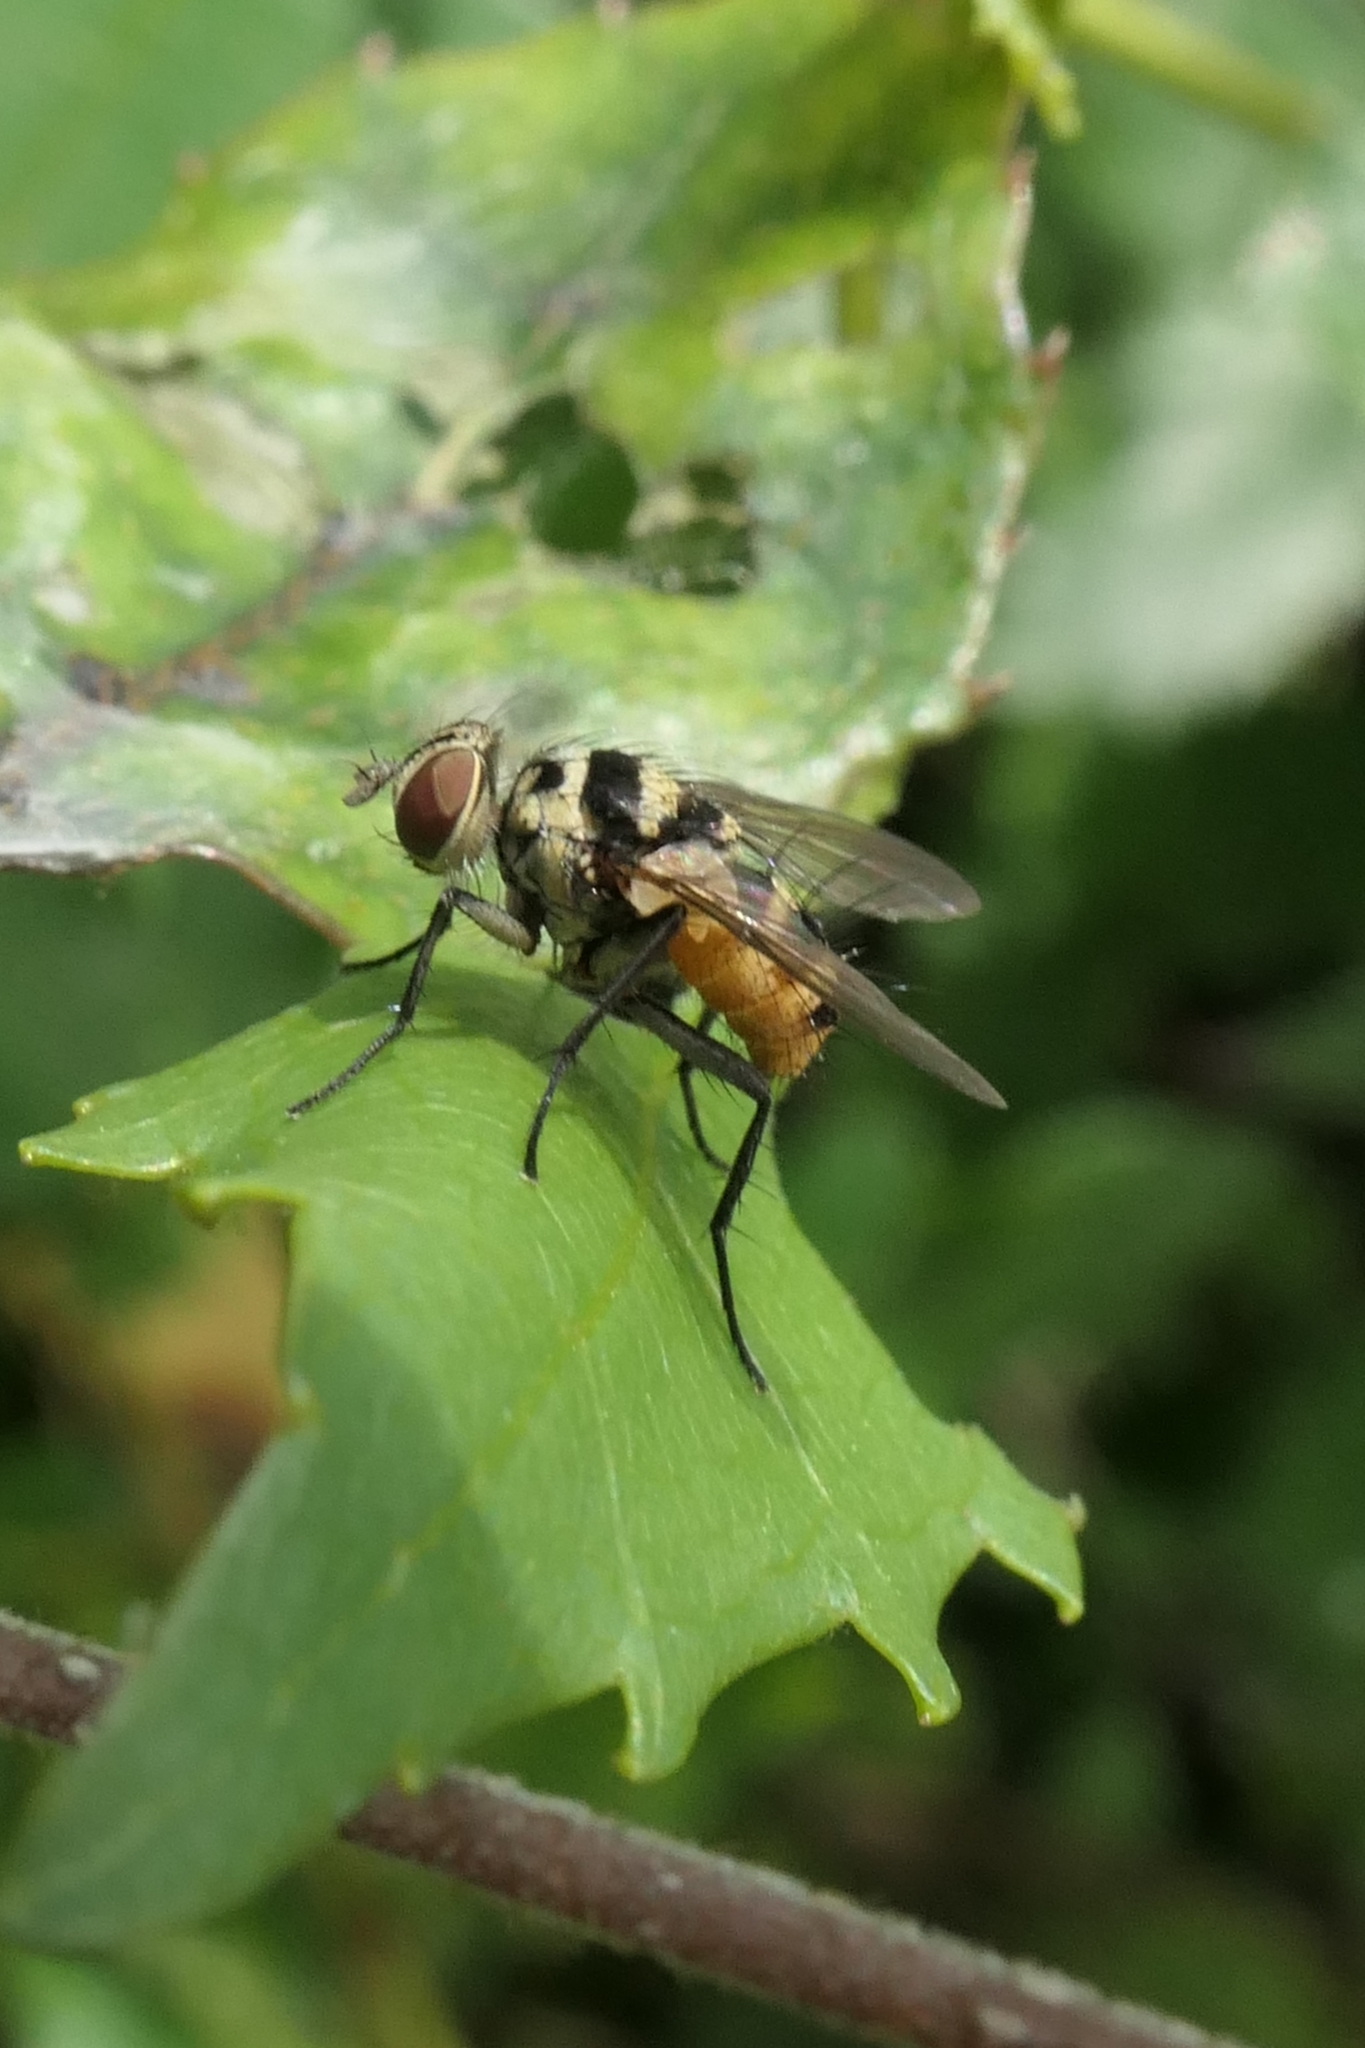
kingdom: Animalia
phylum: Arthropoda
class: Insecta
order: Diptera
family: Tachinidae
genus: Trigonospila
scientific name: Trigonospila brevifacies
